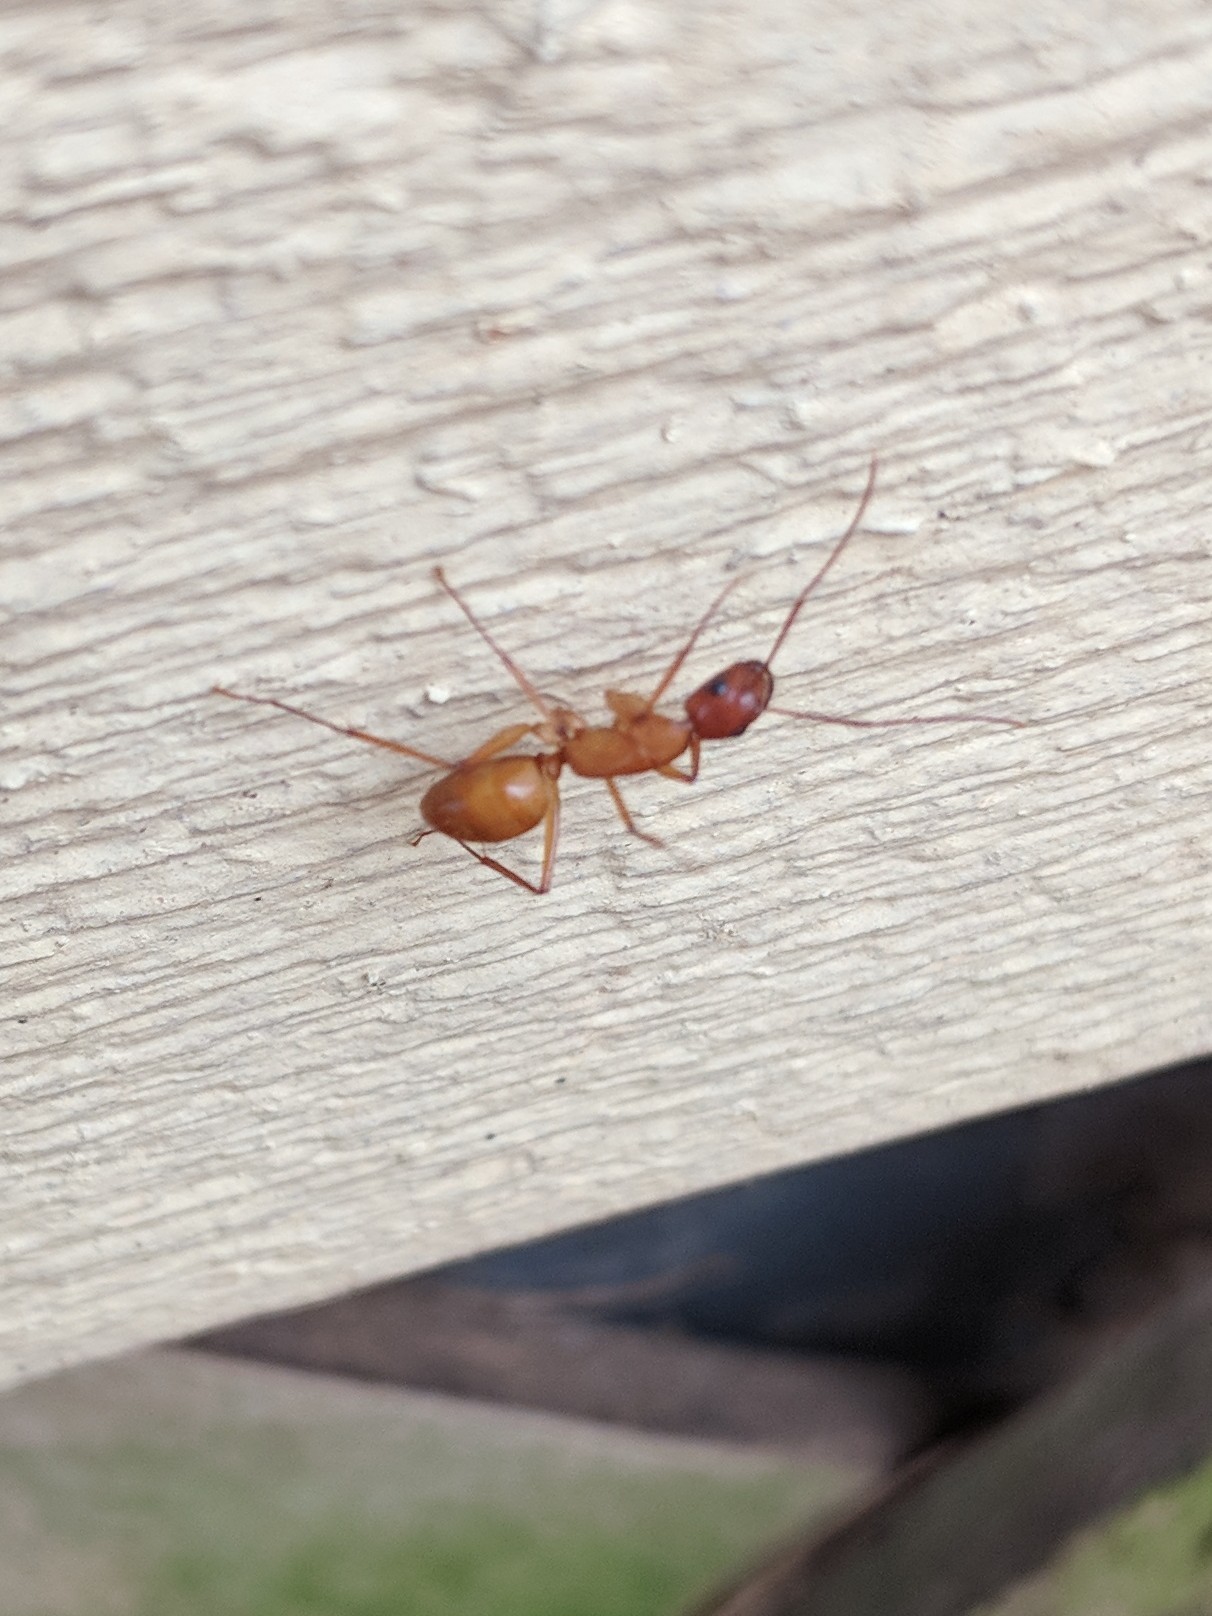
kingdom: Animalia
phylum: Arthropoda
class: Insecta
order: Hymenoptera
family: Formicidae
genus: Camponotus
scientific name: Camponotus castaneus
